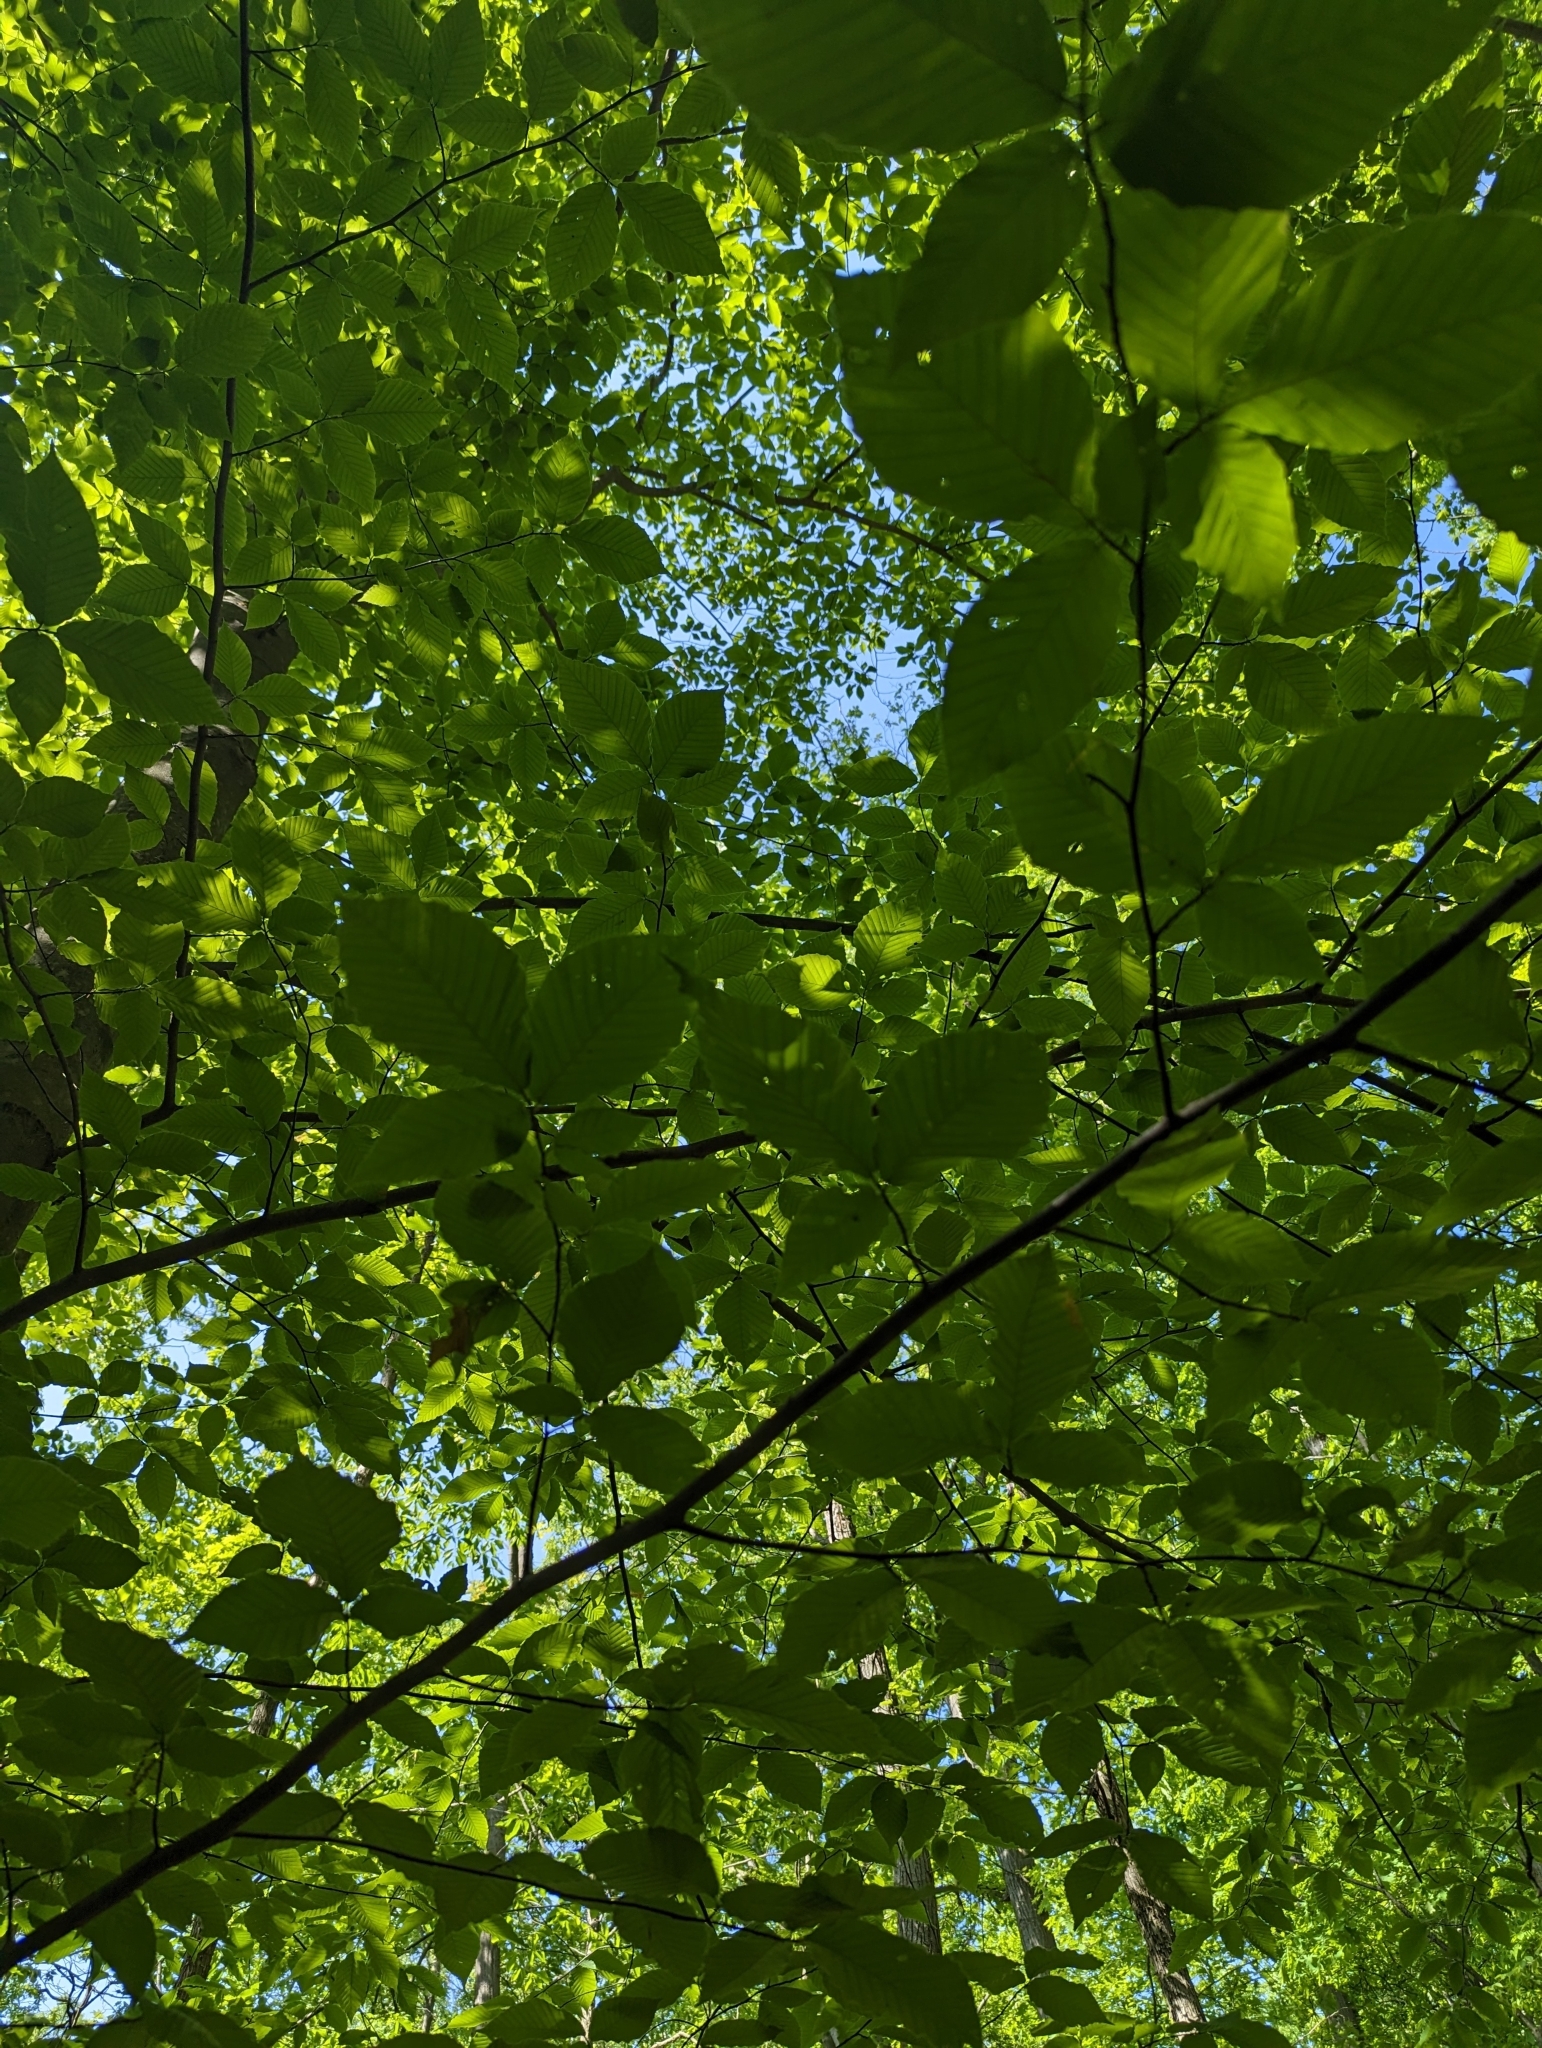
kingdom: Plantae
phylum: Tracheophyta
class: Magnoliopsida
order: Fagales
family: Fagaceae
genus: Fagus
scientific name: Fagus grandifolia
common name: American beech
